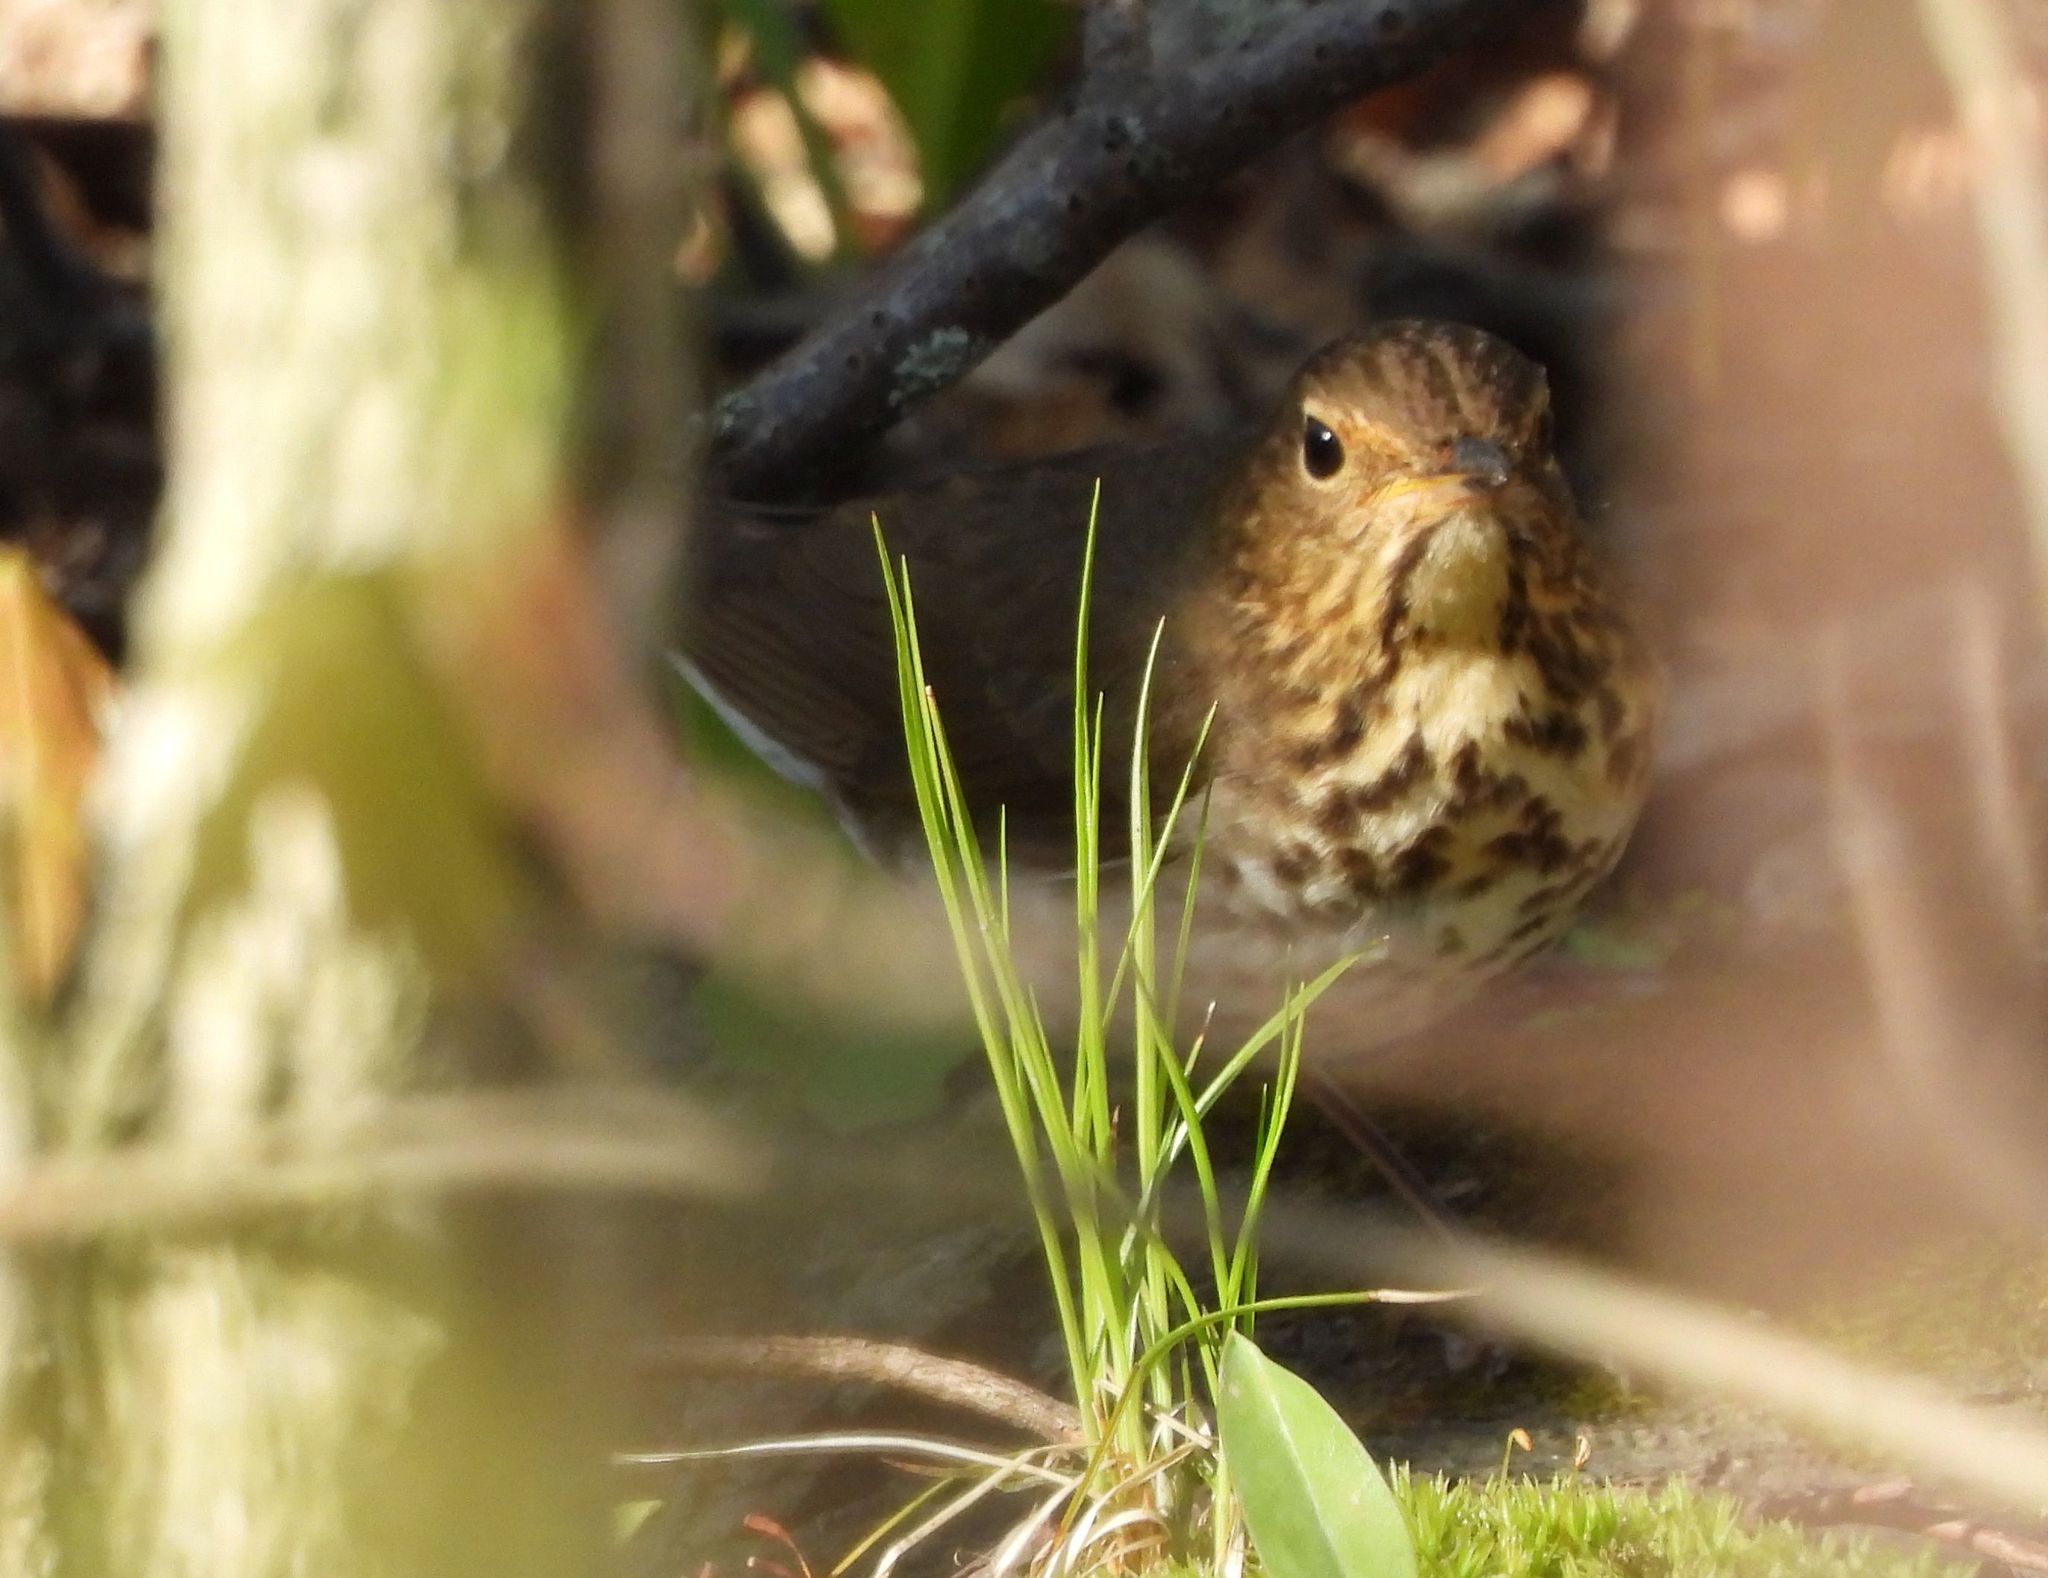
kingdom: Animalia
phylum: Chordata
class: Aves
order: Passeriformes
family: Turdidae
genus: Catharus
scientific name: Catharus ustulatus
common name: Swainson's thrush
